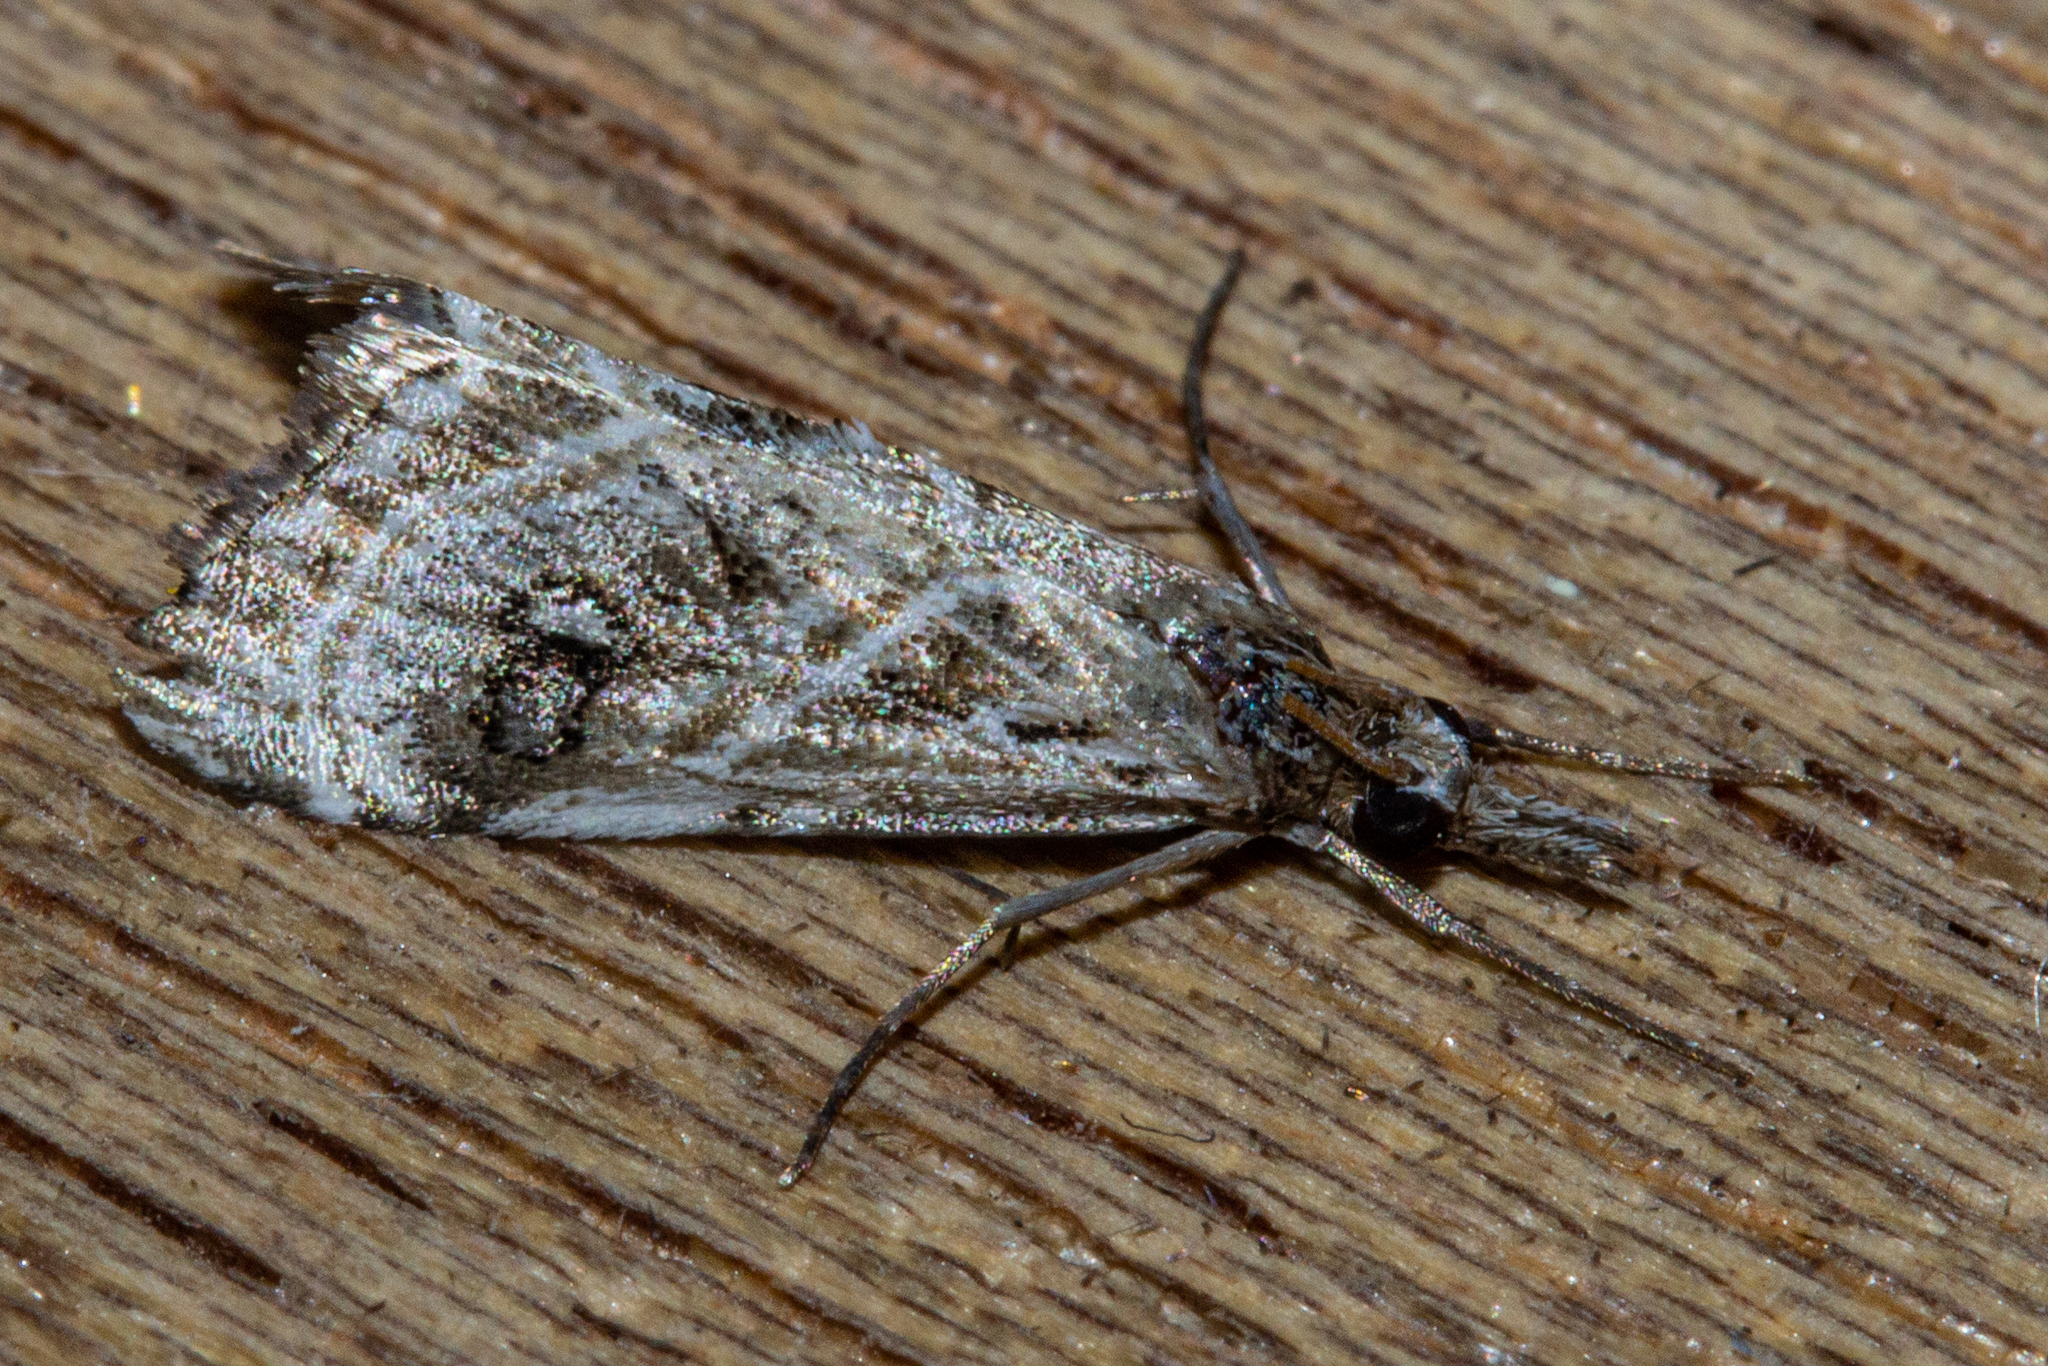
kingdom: Animalia
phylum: Arthropoda
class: Insecta
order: Lepidoptera
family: Crambidae
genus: Gadira
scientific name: Gadira acerella
